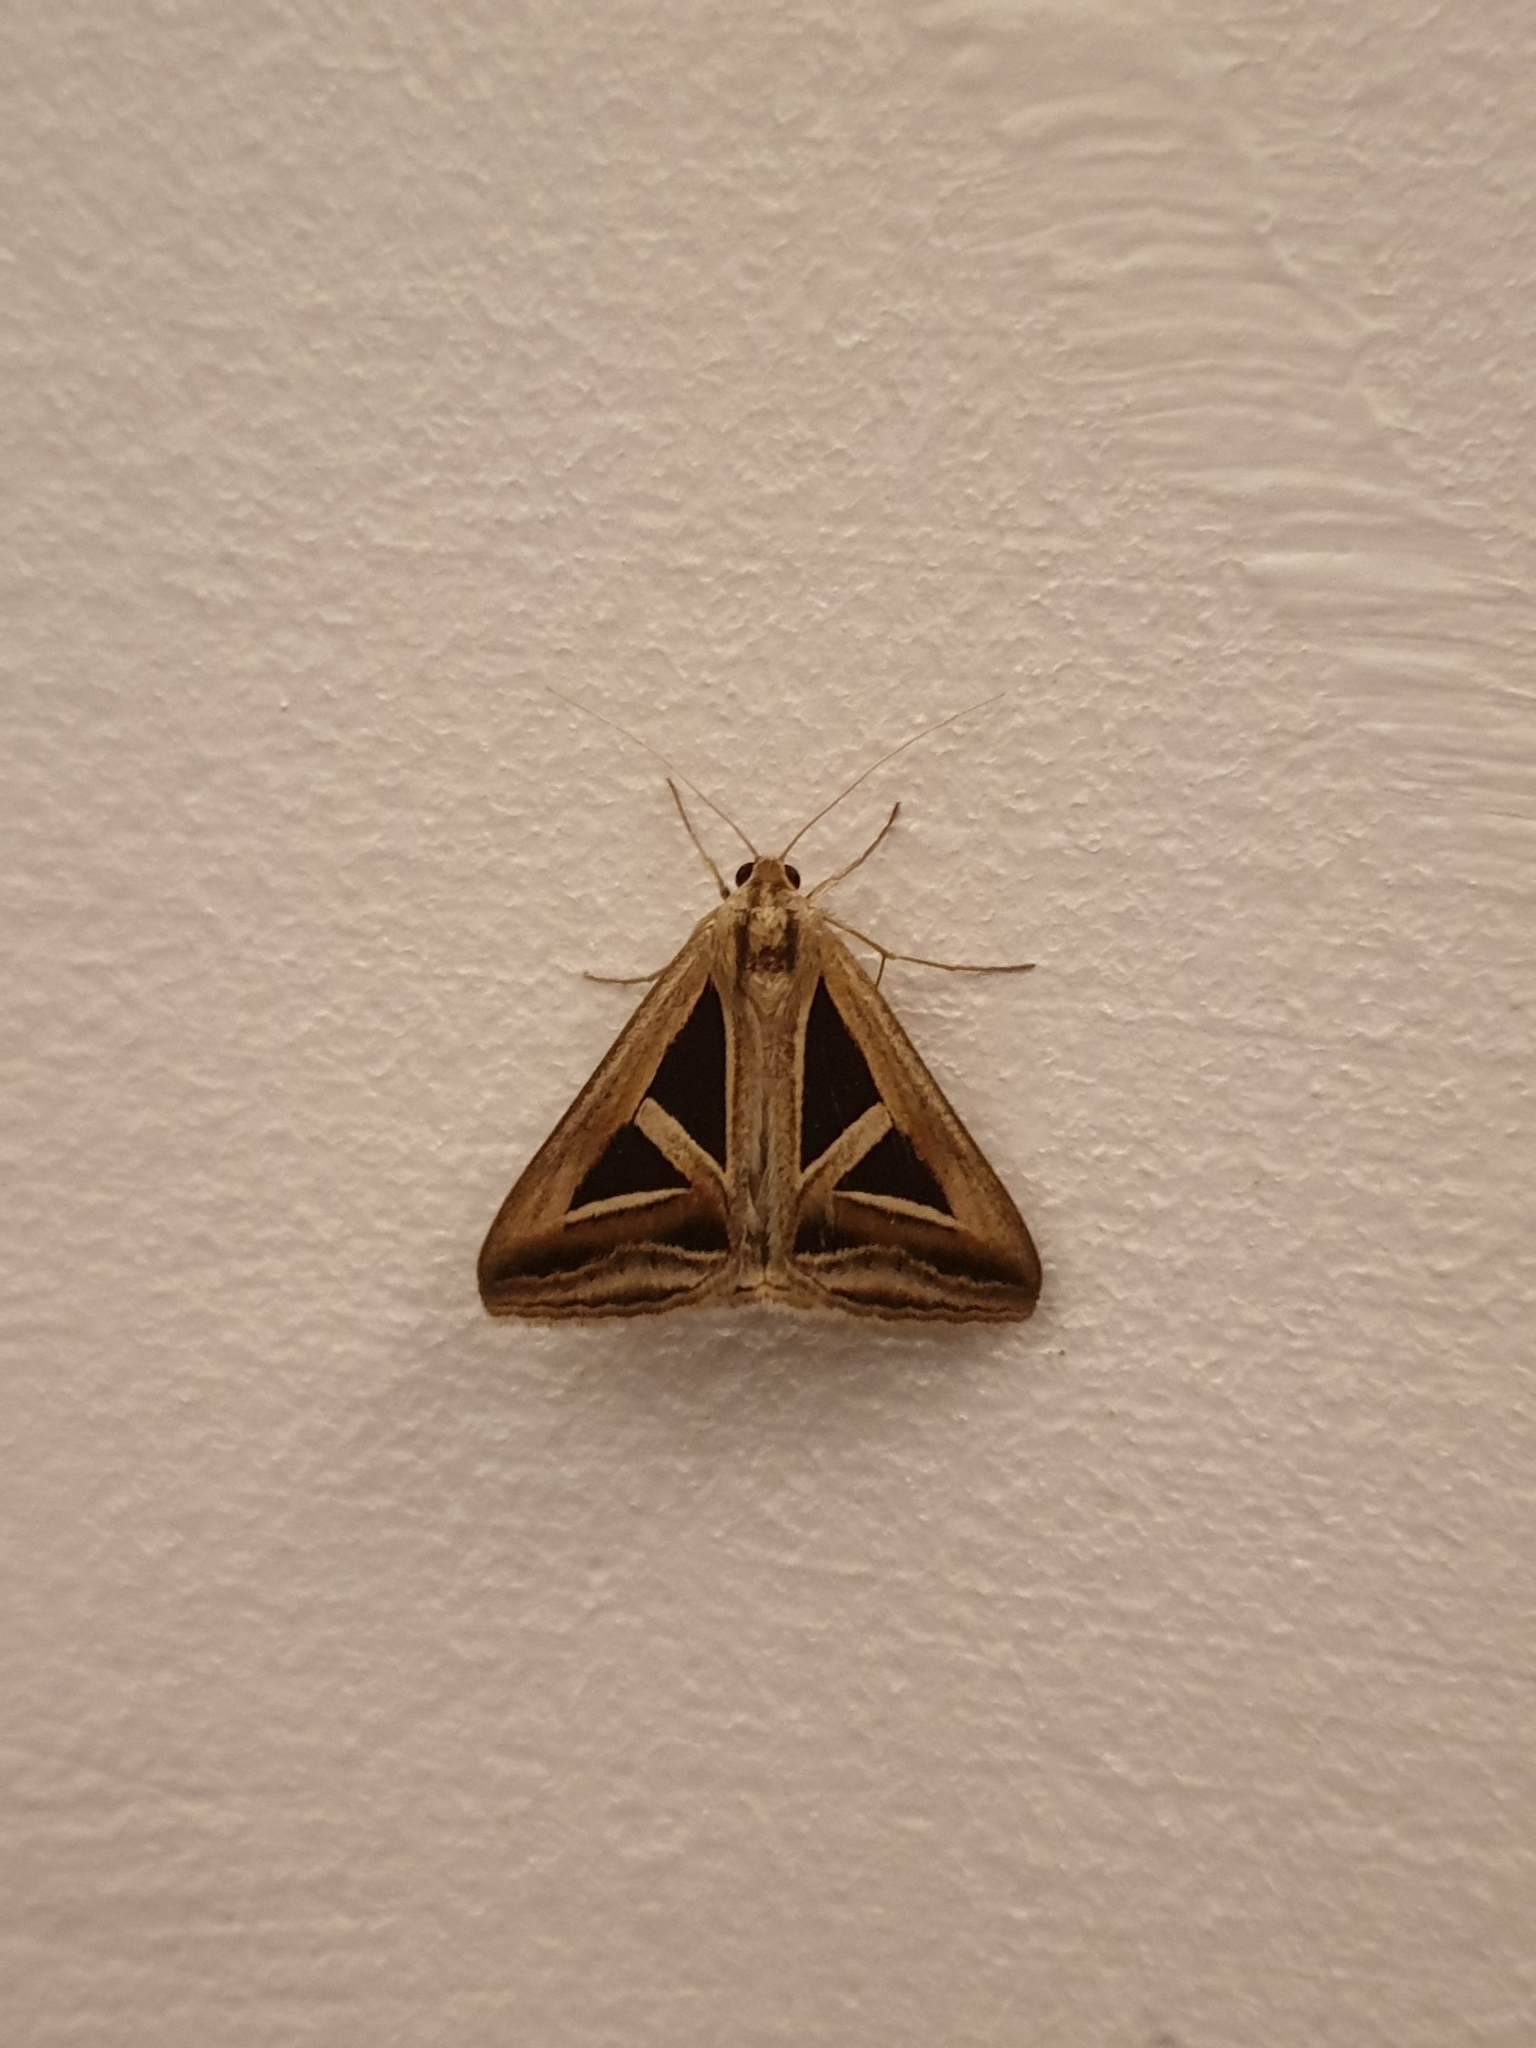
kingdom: Animalia
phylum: Arthropoda
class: Insecta
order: Lepidoptera
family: Erebidae
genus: Trigonodes
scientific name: Trigonodes hyppasia
